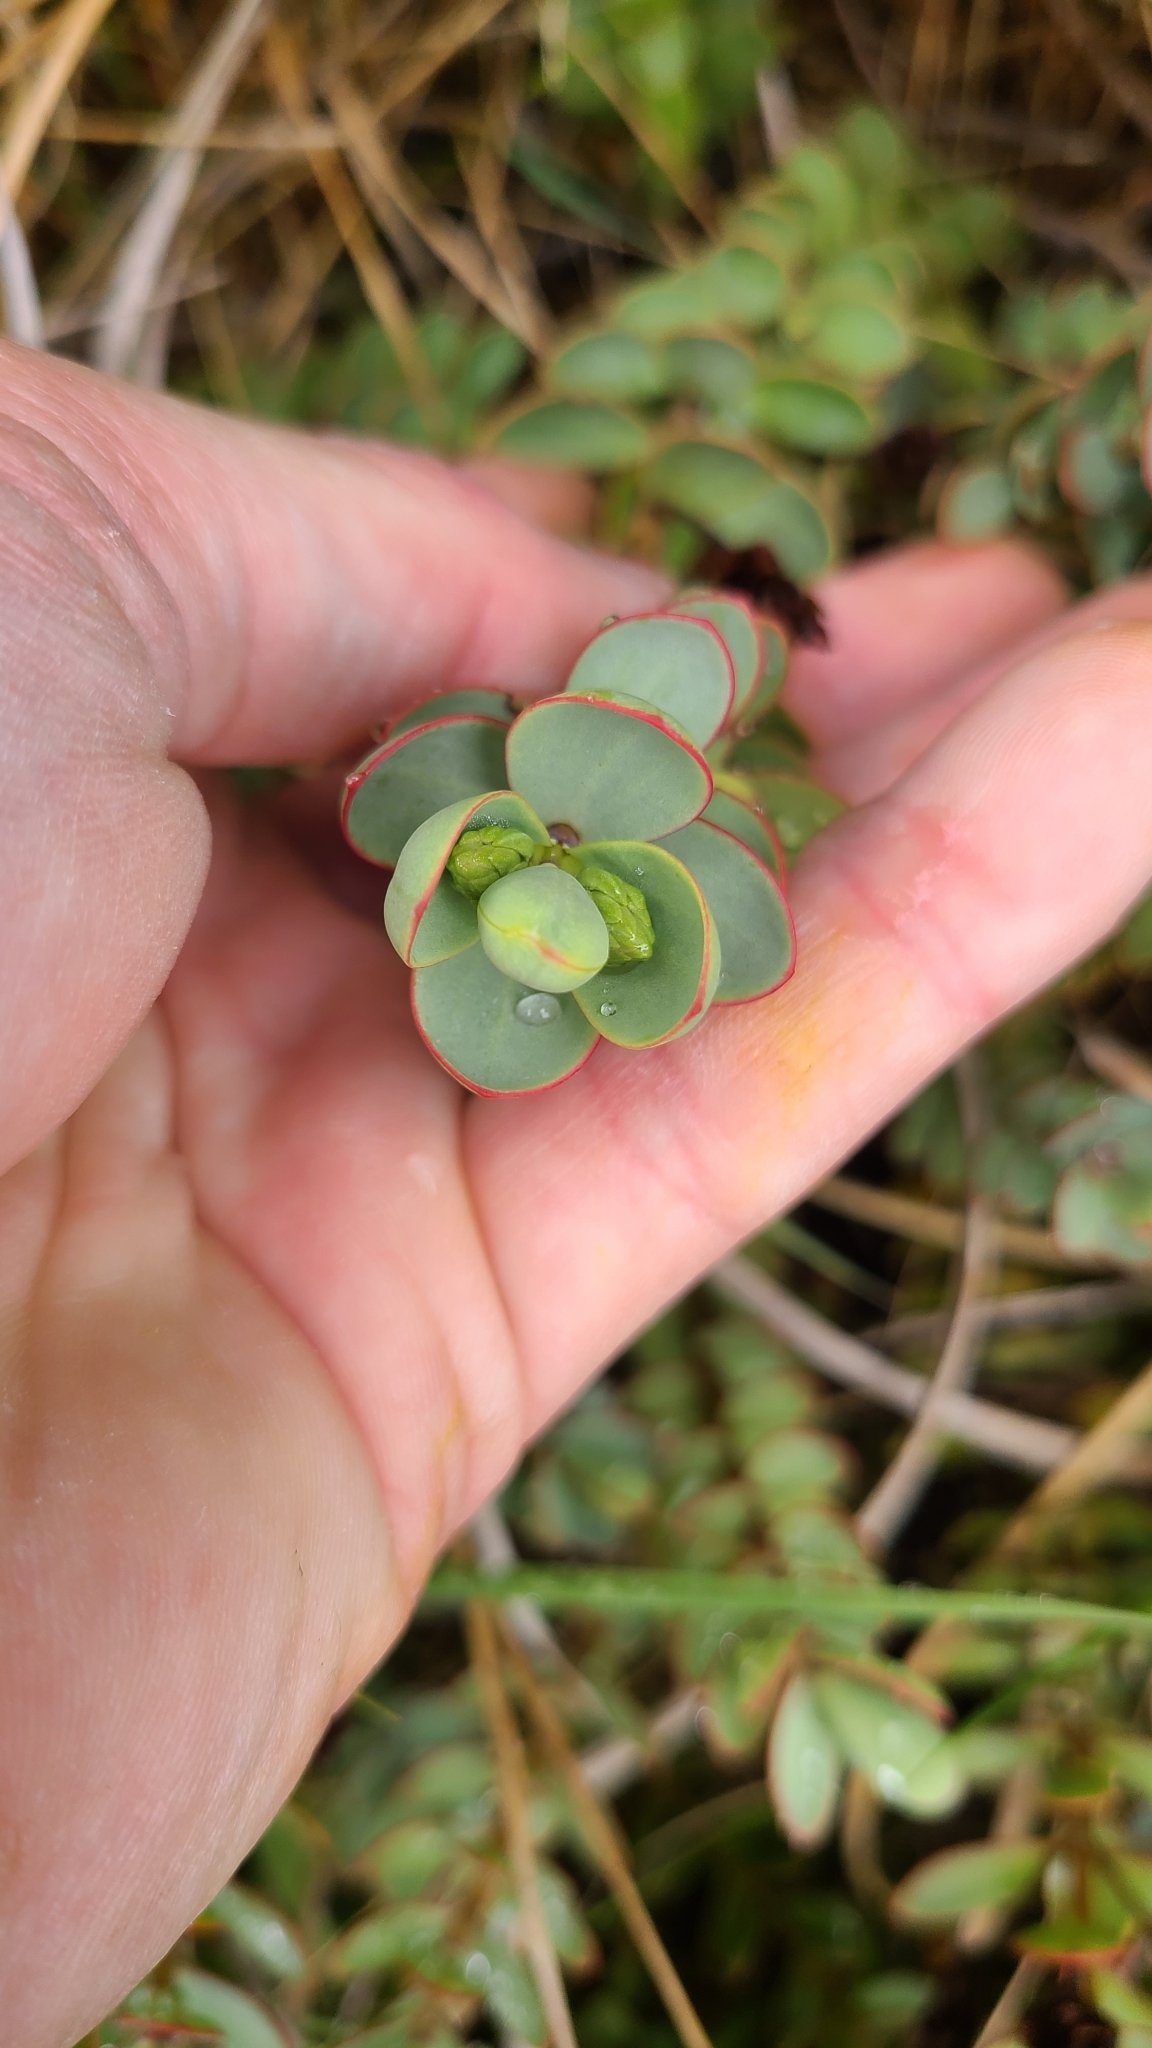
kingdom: Plantae
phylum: Tracheophyta
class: Magnoliopsida
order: Lamiales
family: Plantaginaceae
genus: Veronica
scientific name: Veronica pinguifolia
